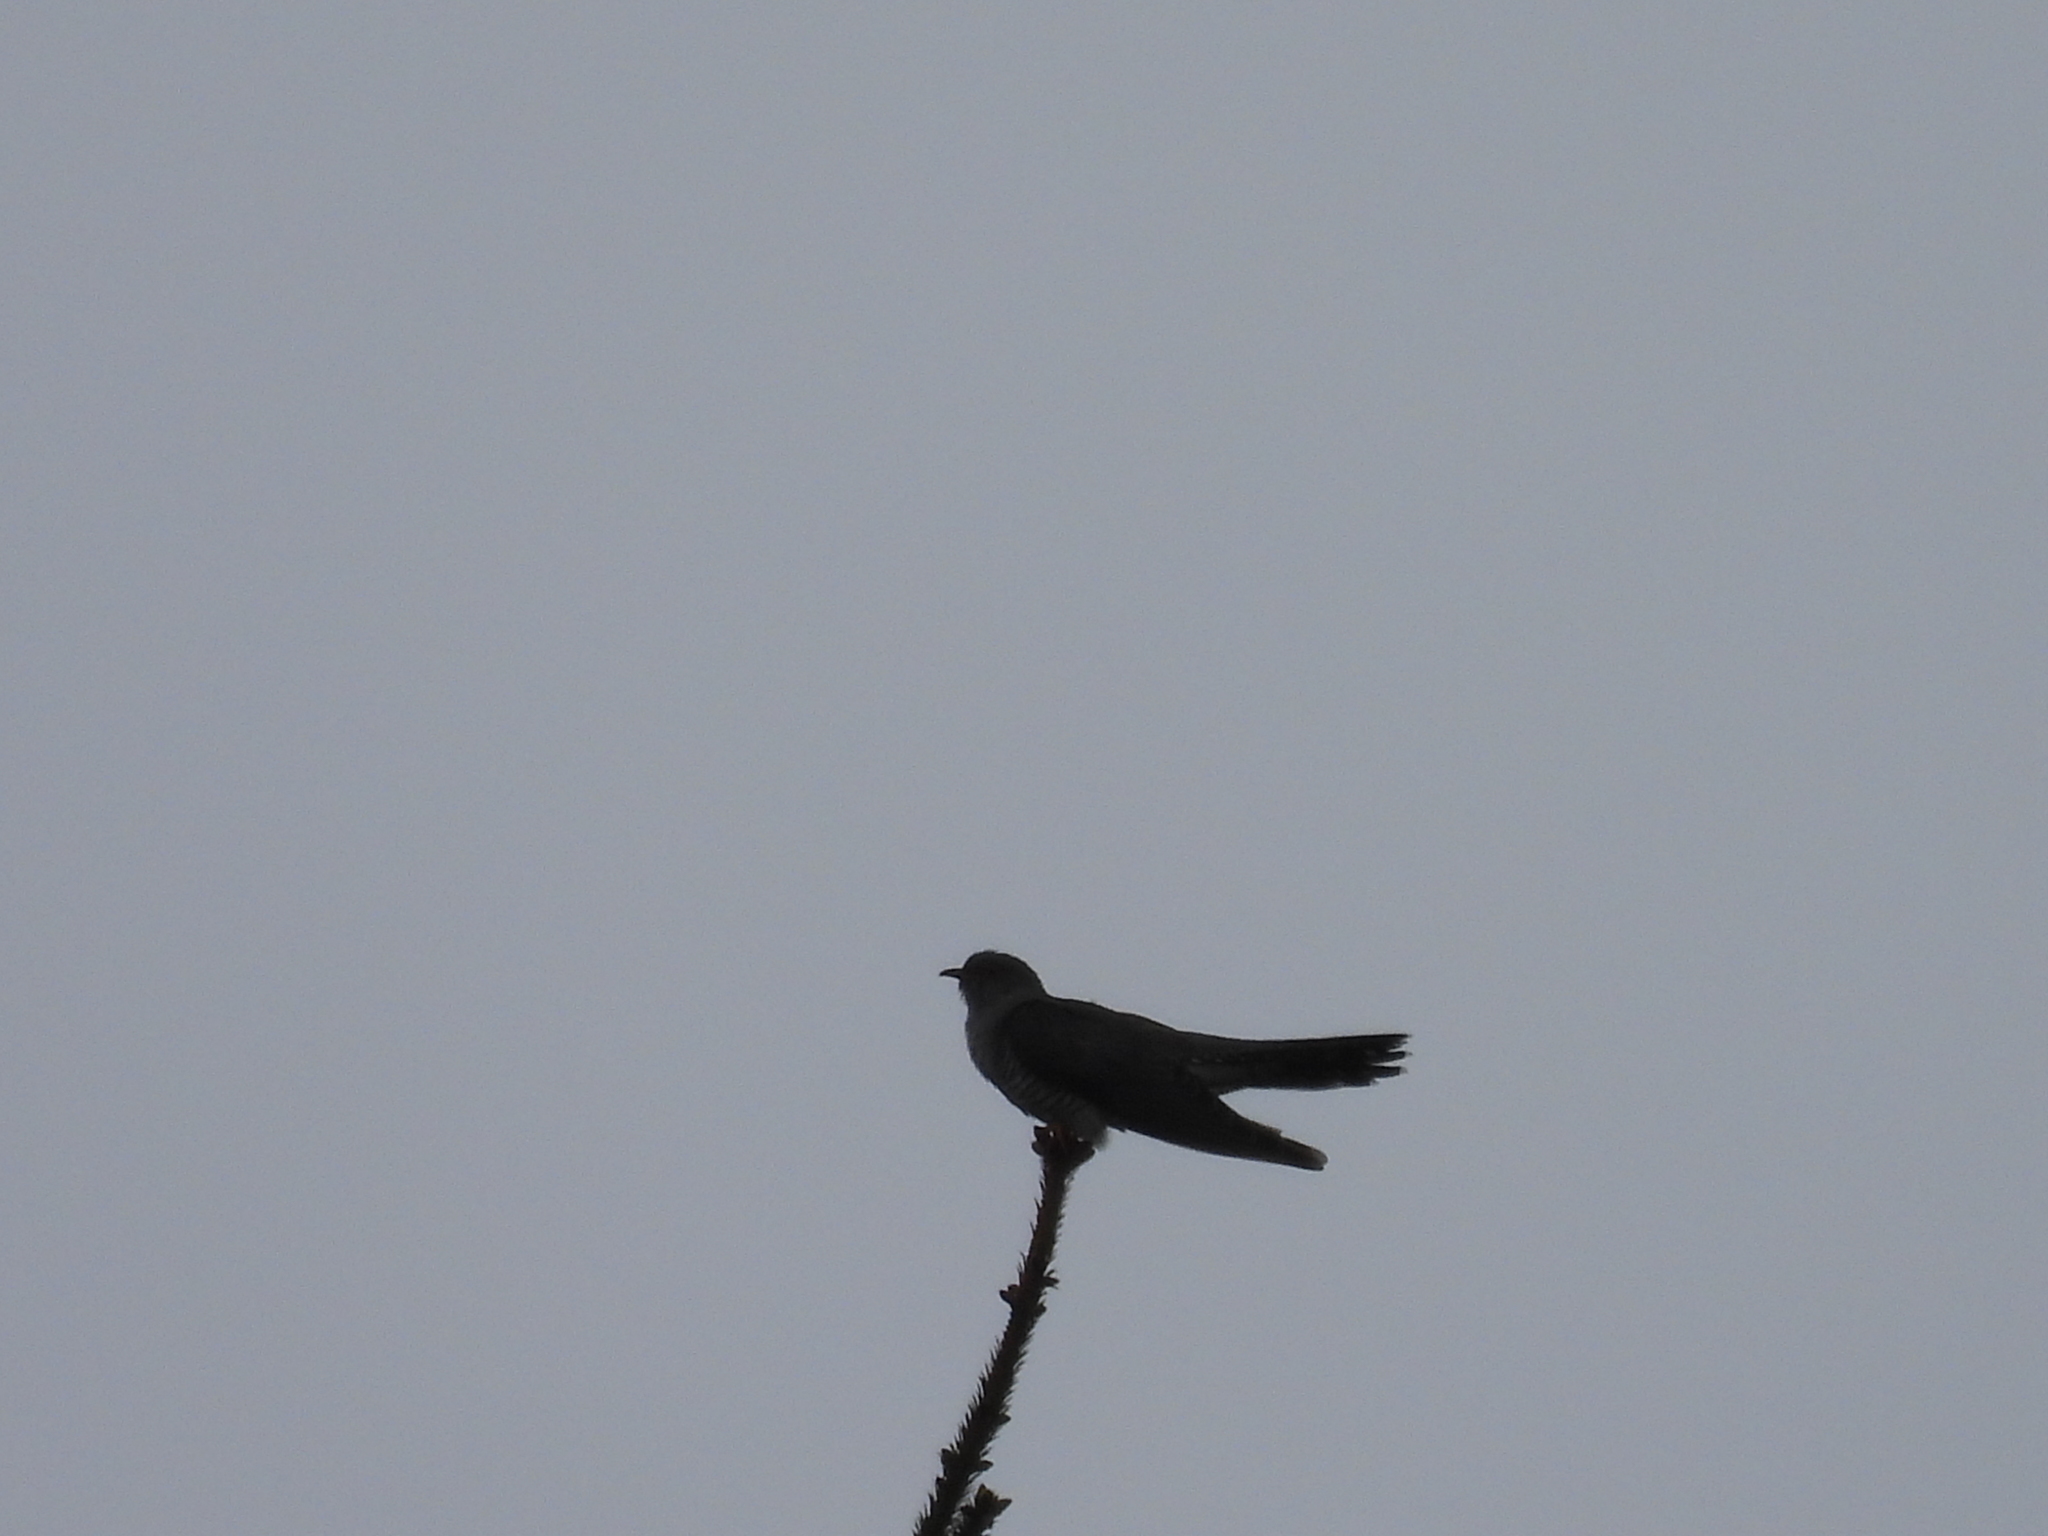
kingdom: Animalia
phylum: Chordata
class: Aves
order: Cuculiformes
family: Cuculidae
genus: Cuculus
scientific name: Cuculus canorus
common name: Common cuckoo
